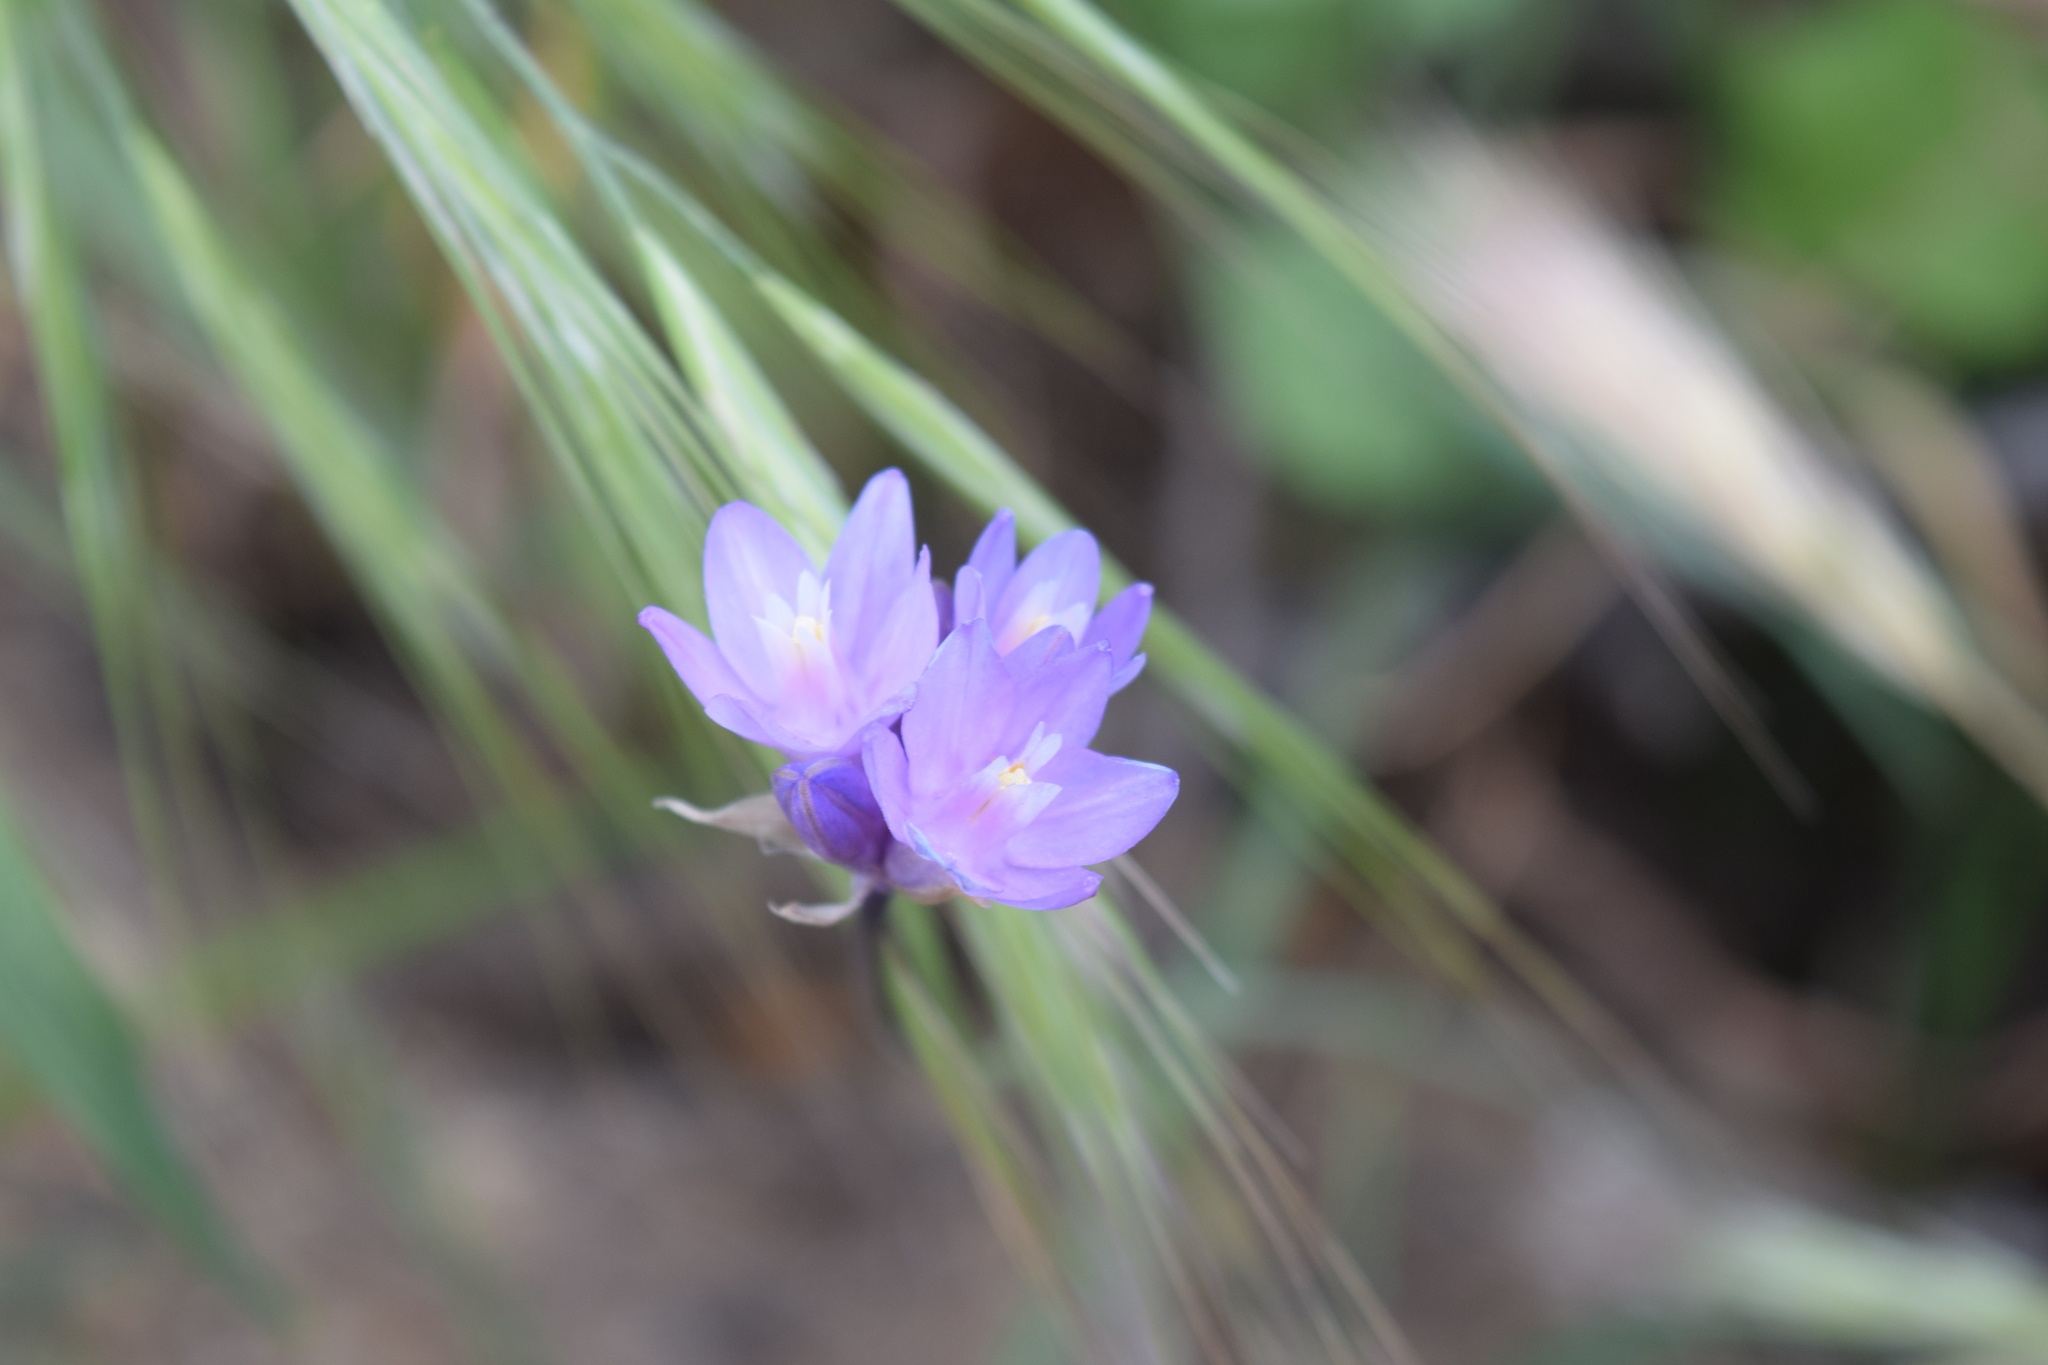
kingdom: Plantae
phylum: Tracheophyta
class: Liliopsida
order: Asparagales
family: Asparagaceae
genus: Dipterostemon
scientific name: Dipterostemon capitatus
